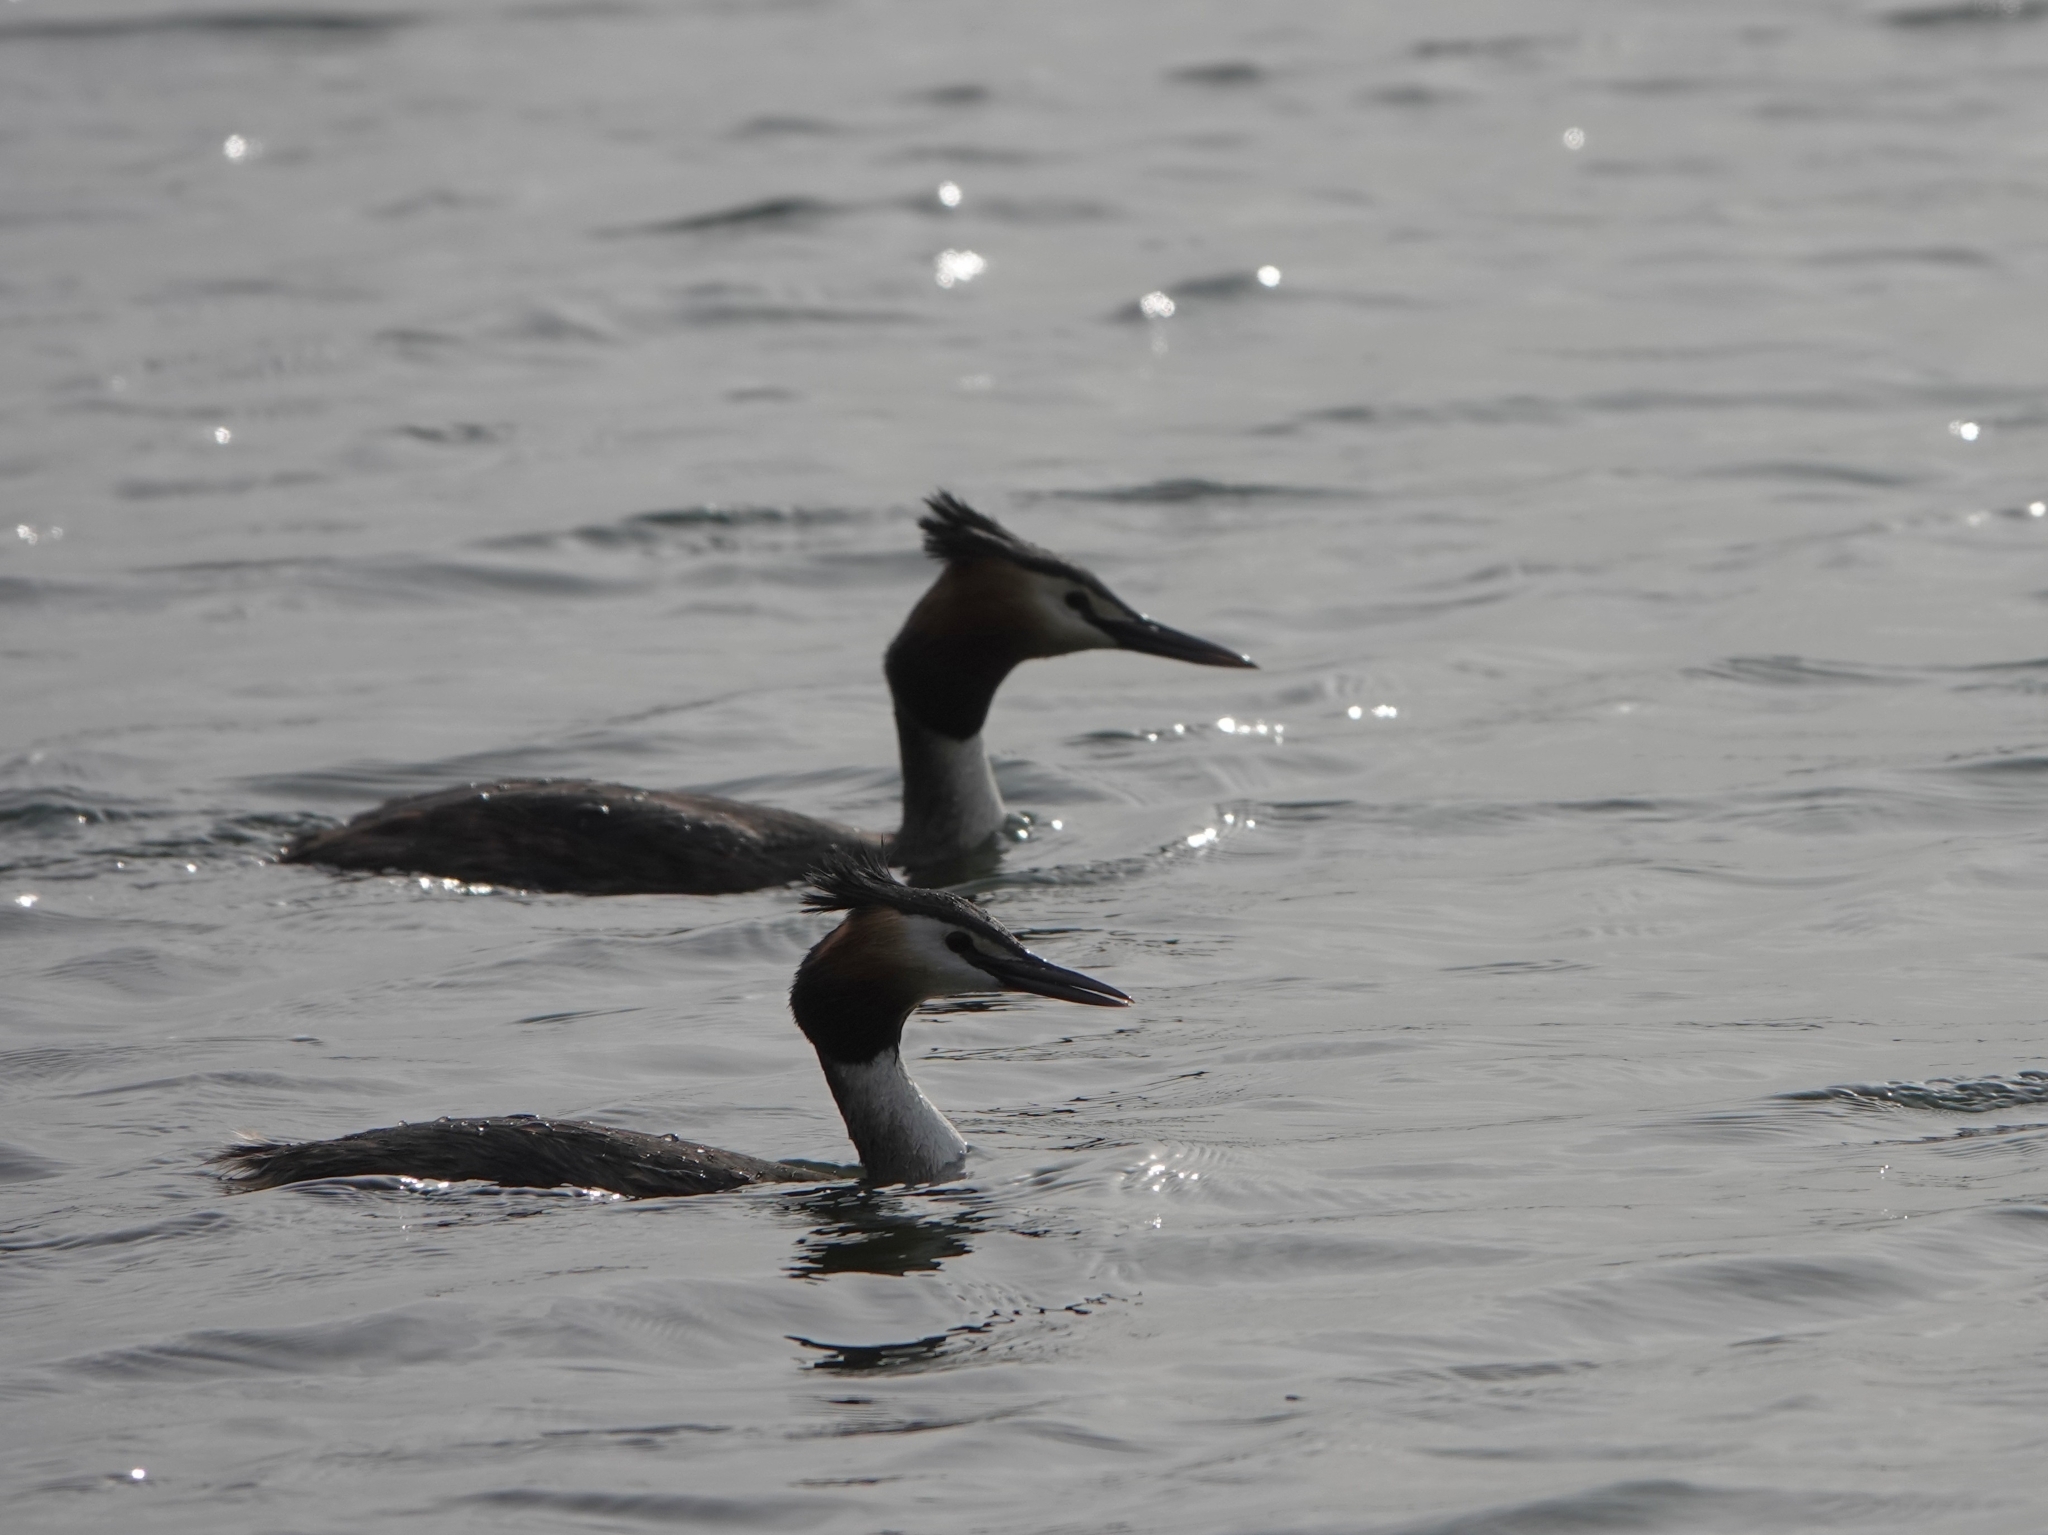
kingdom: Animalia
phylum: Chordata
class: Aves
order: Podicipediformes
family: Podicipedidae
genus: Podiceps
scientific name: Podiceps cristatus
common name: Great crested grebe
